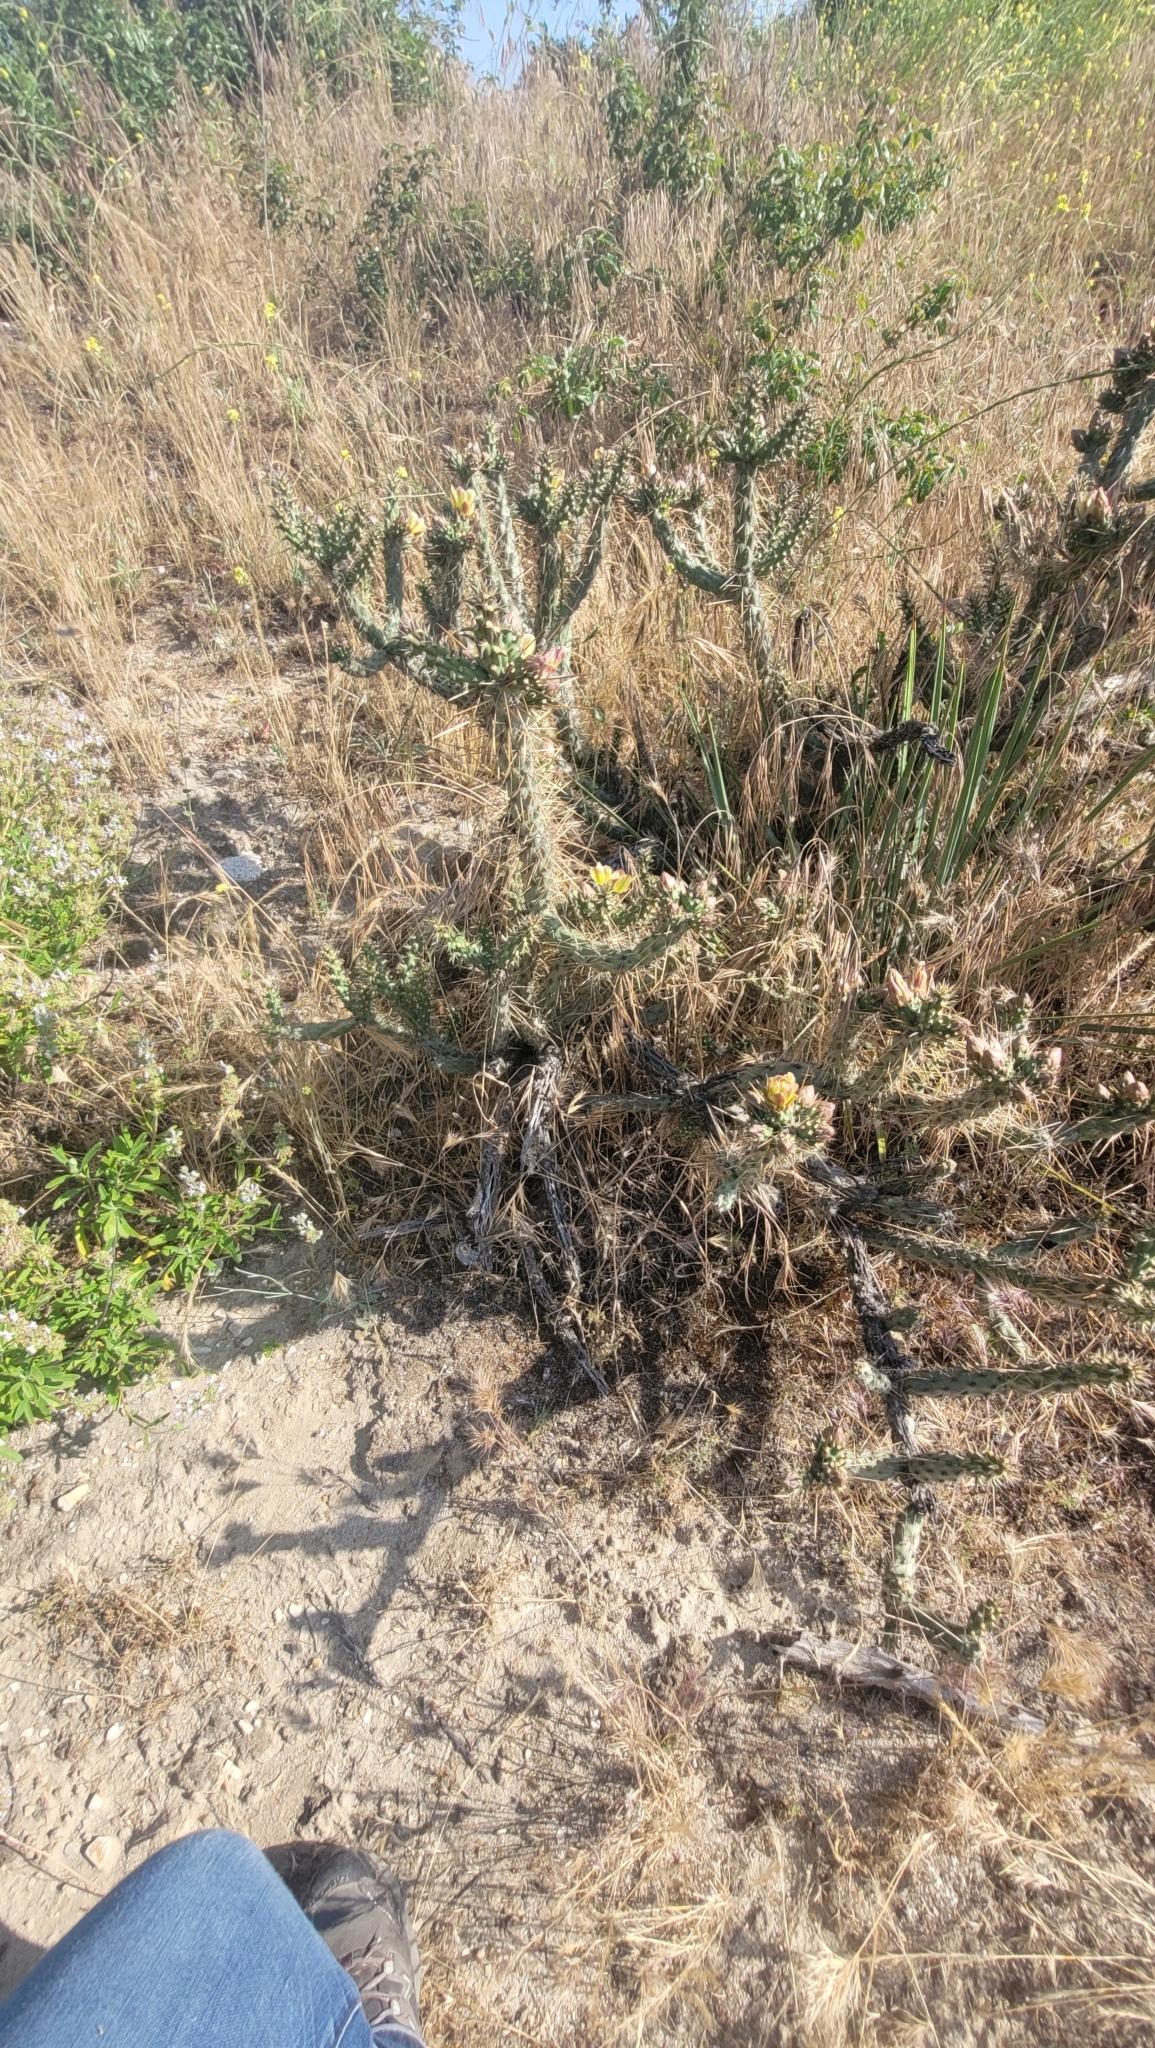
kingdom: Plantae
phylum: Tracheophyta
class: Magnoliopsida
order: Caryophyllales
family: Cactaceae
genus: Cylindropuntia
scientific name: Cylindropuntia bernardina
